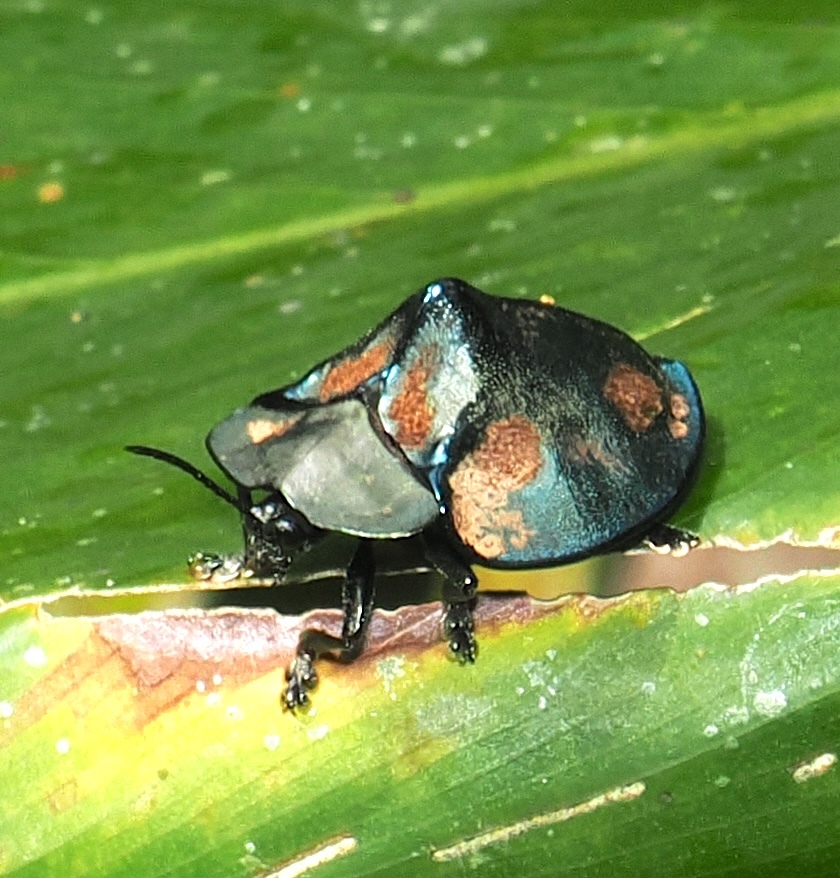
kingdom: Animalia
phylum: Arthropoda
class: Insecta
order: Coleoptera
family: Chrysomelidae
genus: Stolas
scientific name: Stolas chalybaea
